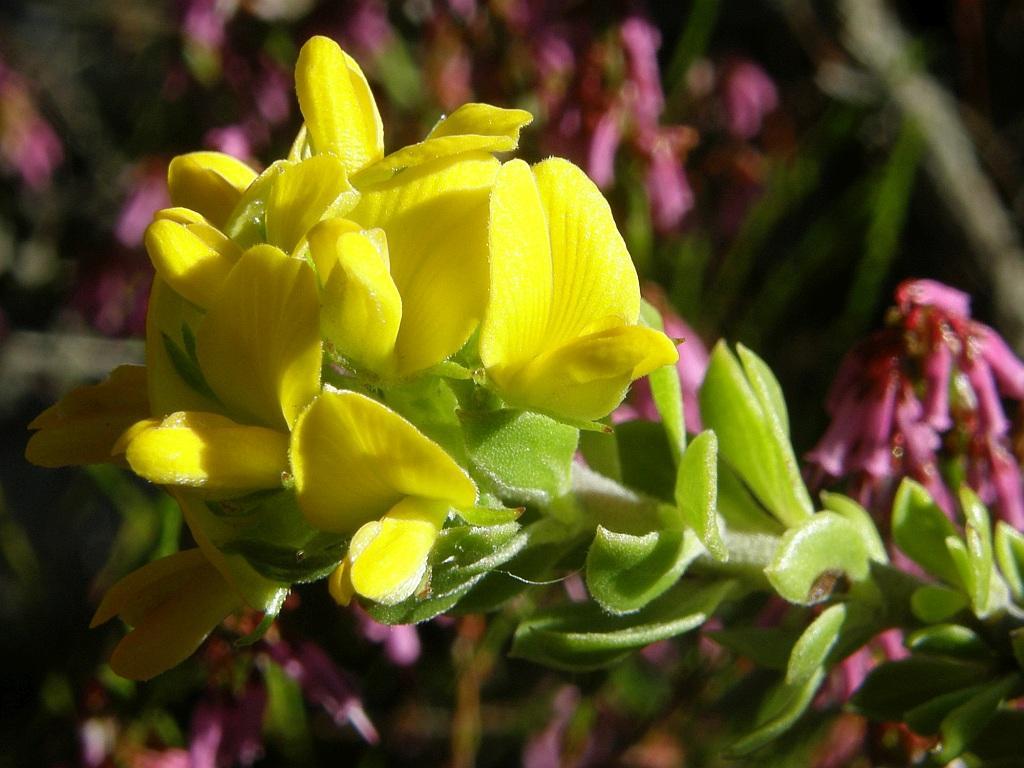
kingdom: Plantae
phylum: Tracheophyta
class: Magnoliopsida
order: Fabales
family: Fabaceae
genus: Aspalathus
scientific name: Aspalathus securifolia
